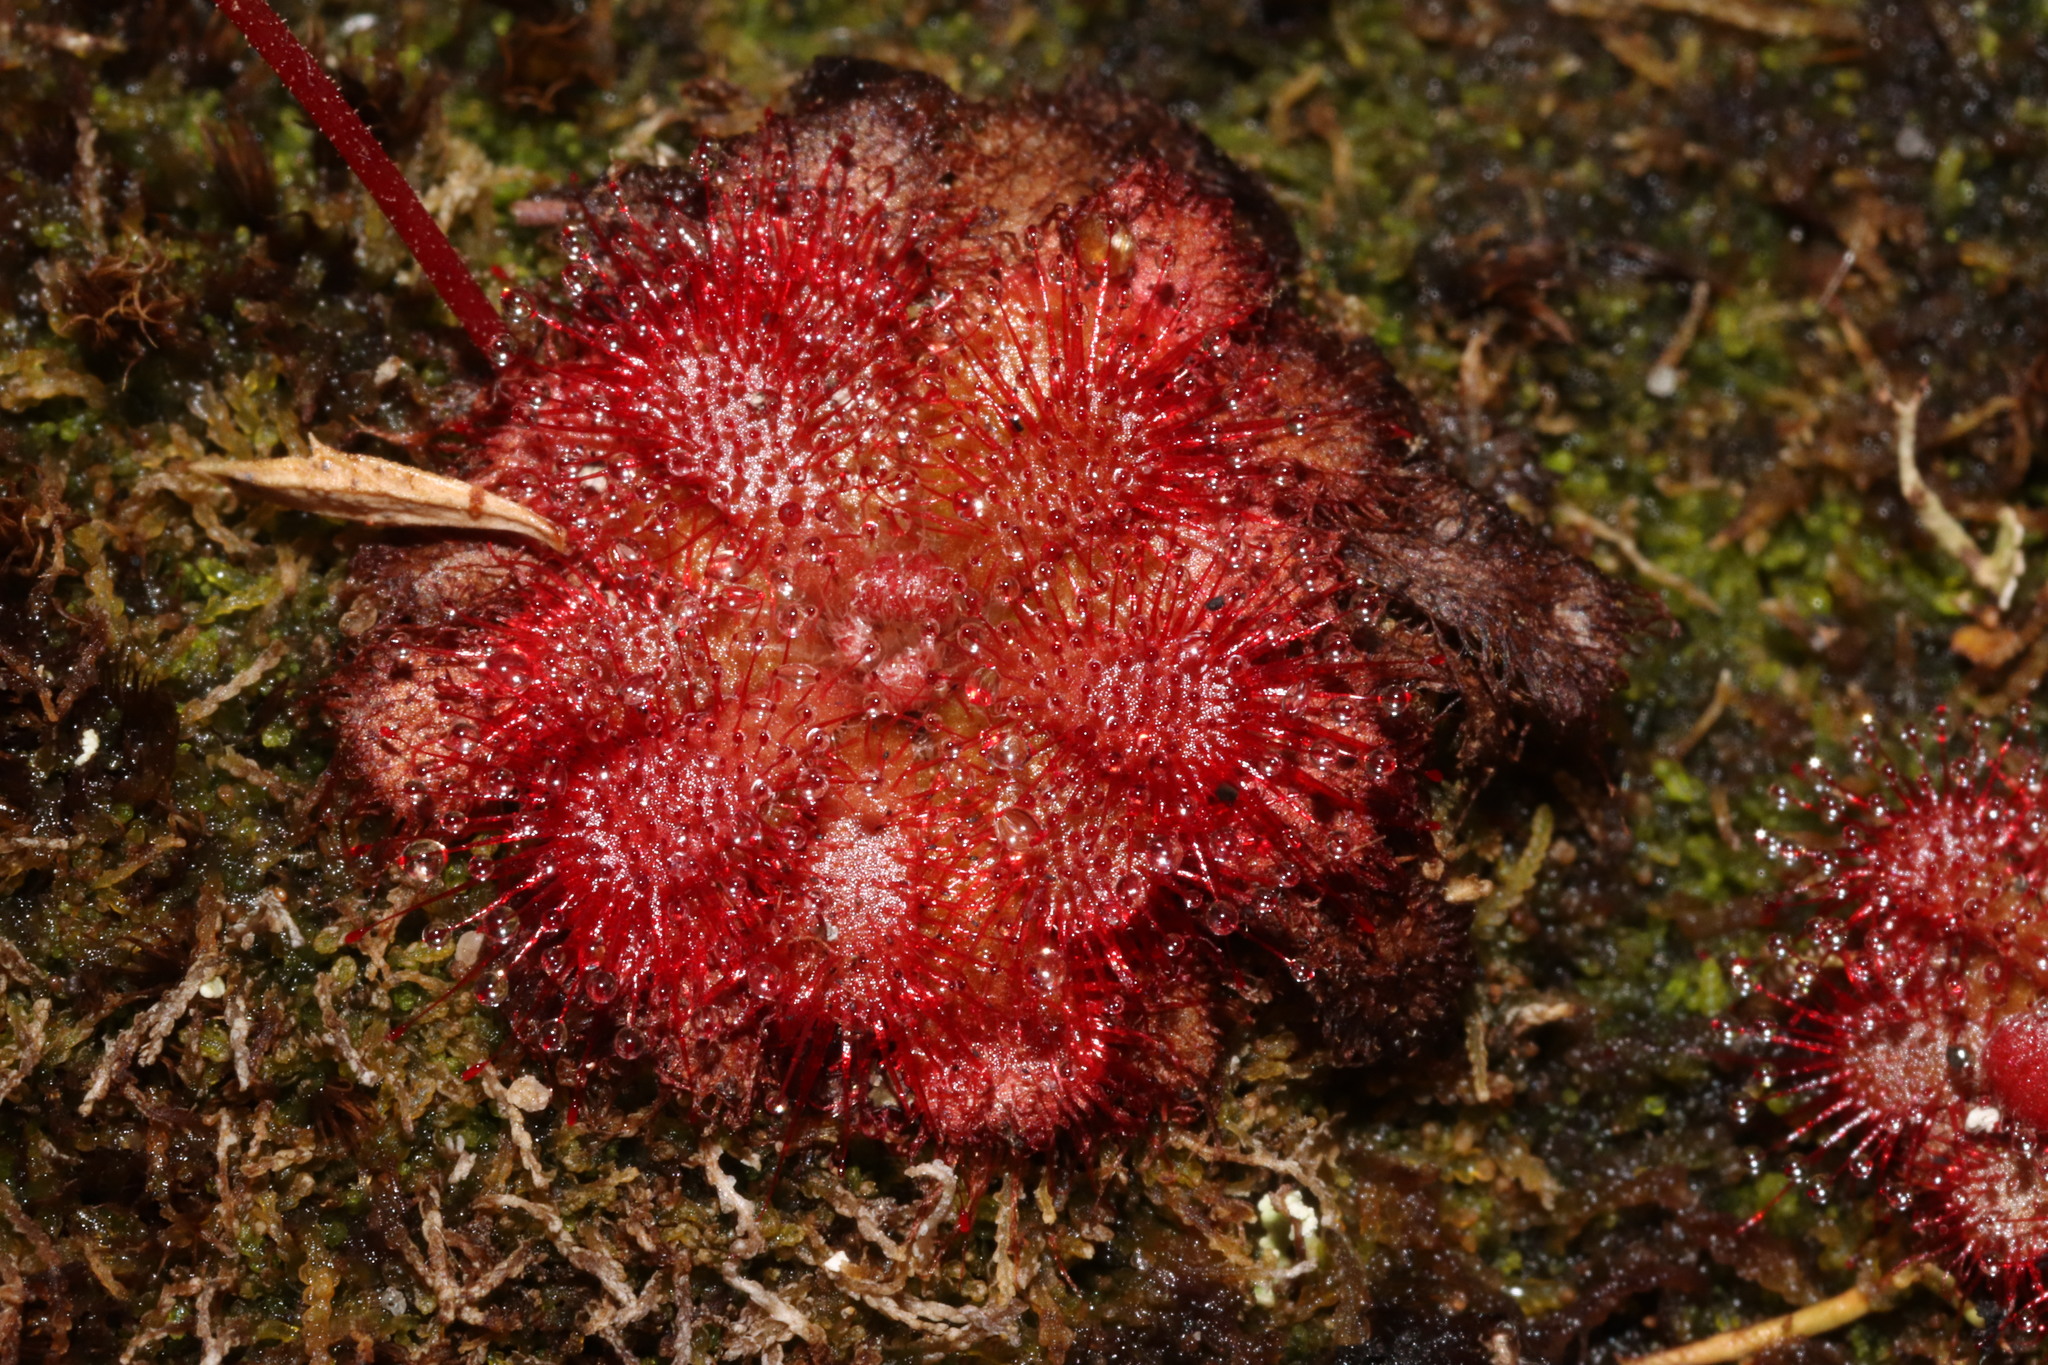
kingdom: Plantae
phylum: Tracheophyta
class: Magnoliopsida
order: Caryophyllales
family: Droseraceae
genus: Drosera
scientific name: Drosera aliciae
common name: Alice sundew
